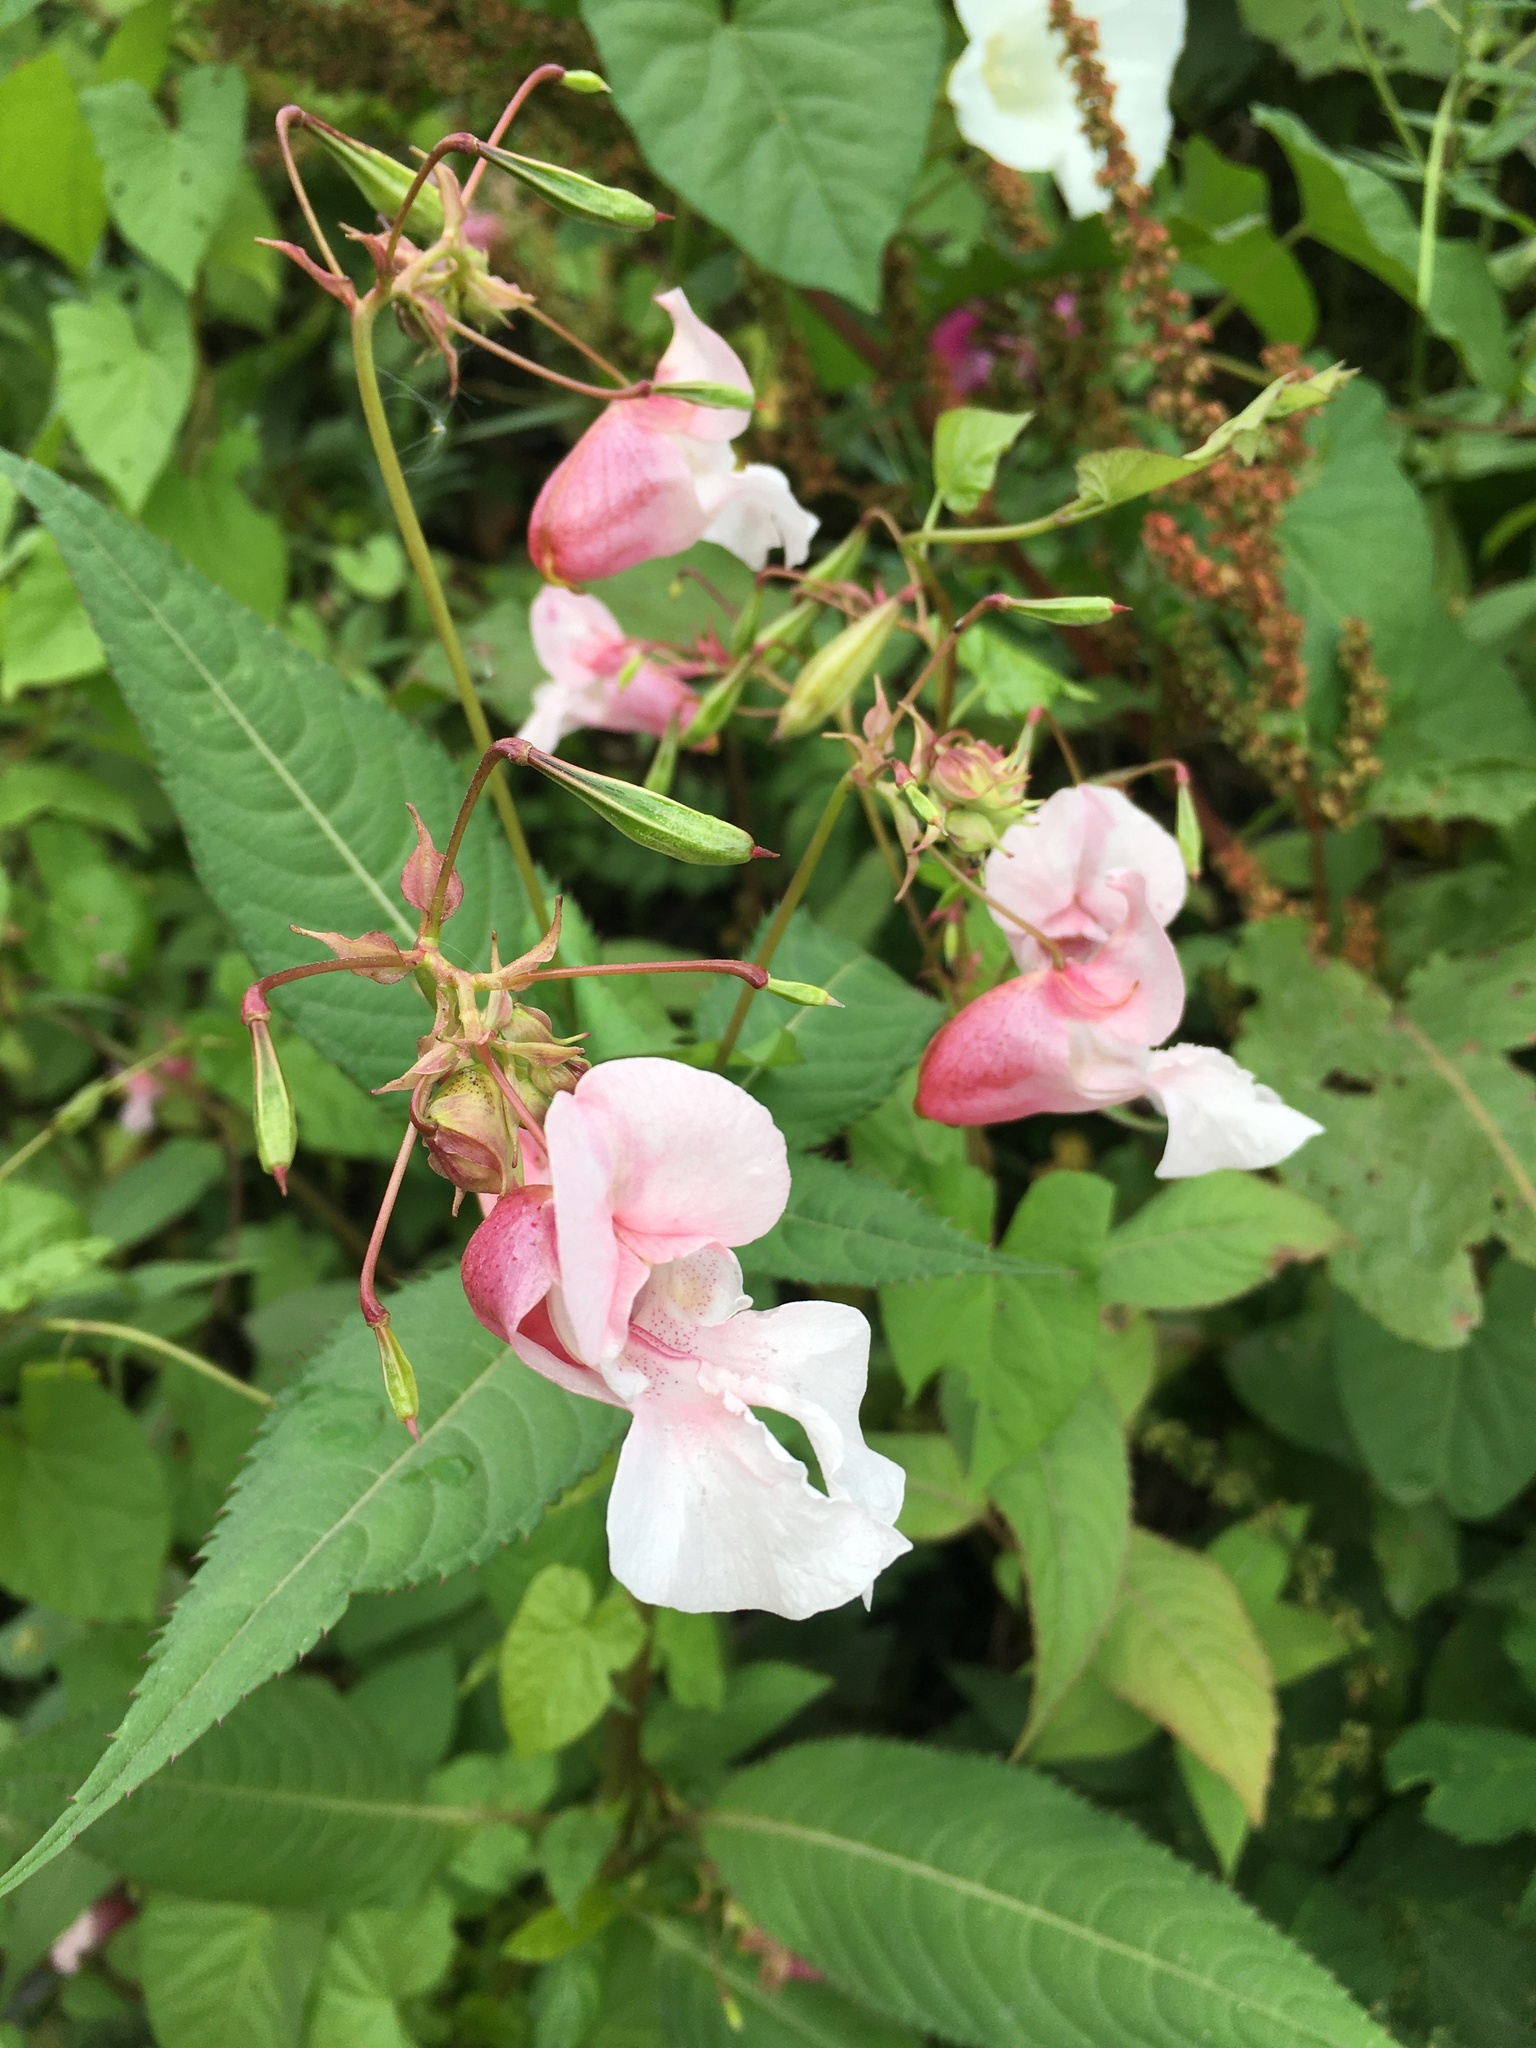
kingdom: Plantae
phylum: Tracheophyta
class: Magnoliopsida
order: Ericales
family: Balsaminaceae
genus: Impatiens
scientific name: Impatiens glandulifera
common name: Himalayan balsam
